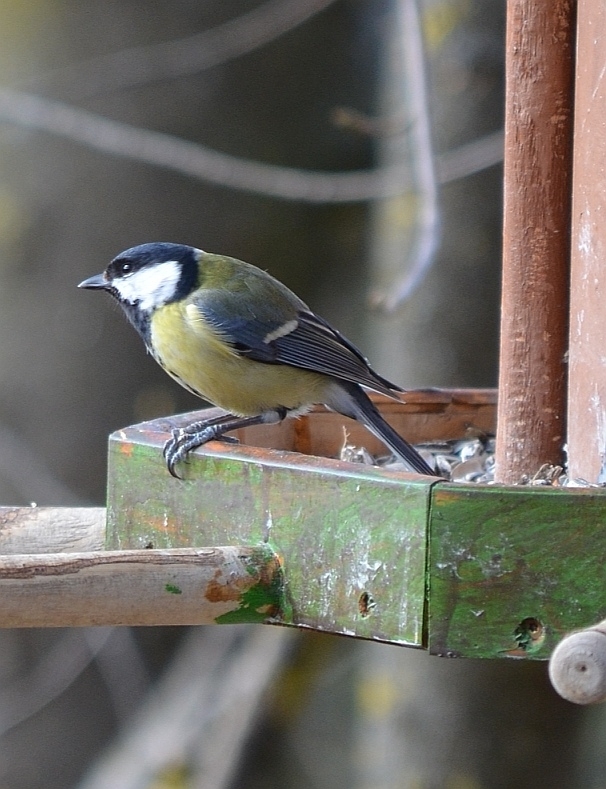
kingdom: Animalia
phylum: Chordata
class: Aves
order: Passeriformes
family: Paridae
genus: Parus
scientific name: Parus major
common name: Great tit
